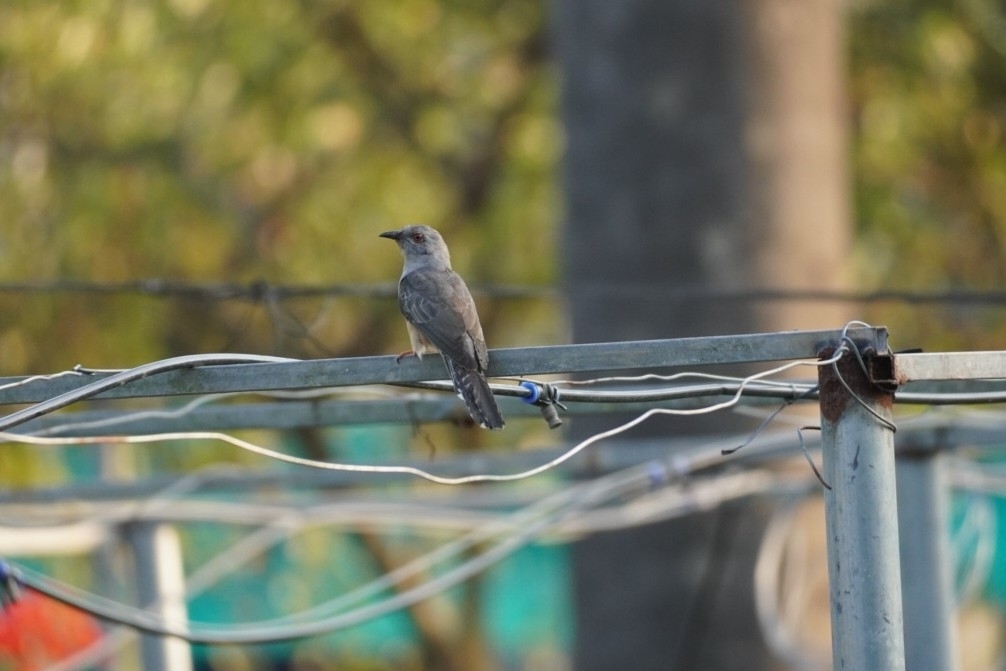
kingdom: Animalia
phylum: Chordata
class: Aves
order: Cuculiformes
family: Cuculidae
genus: Cacomantis
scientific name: Cacomantis merulinus
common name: Plaintive cuckoo
